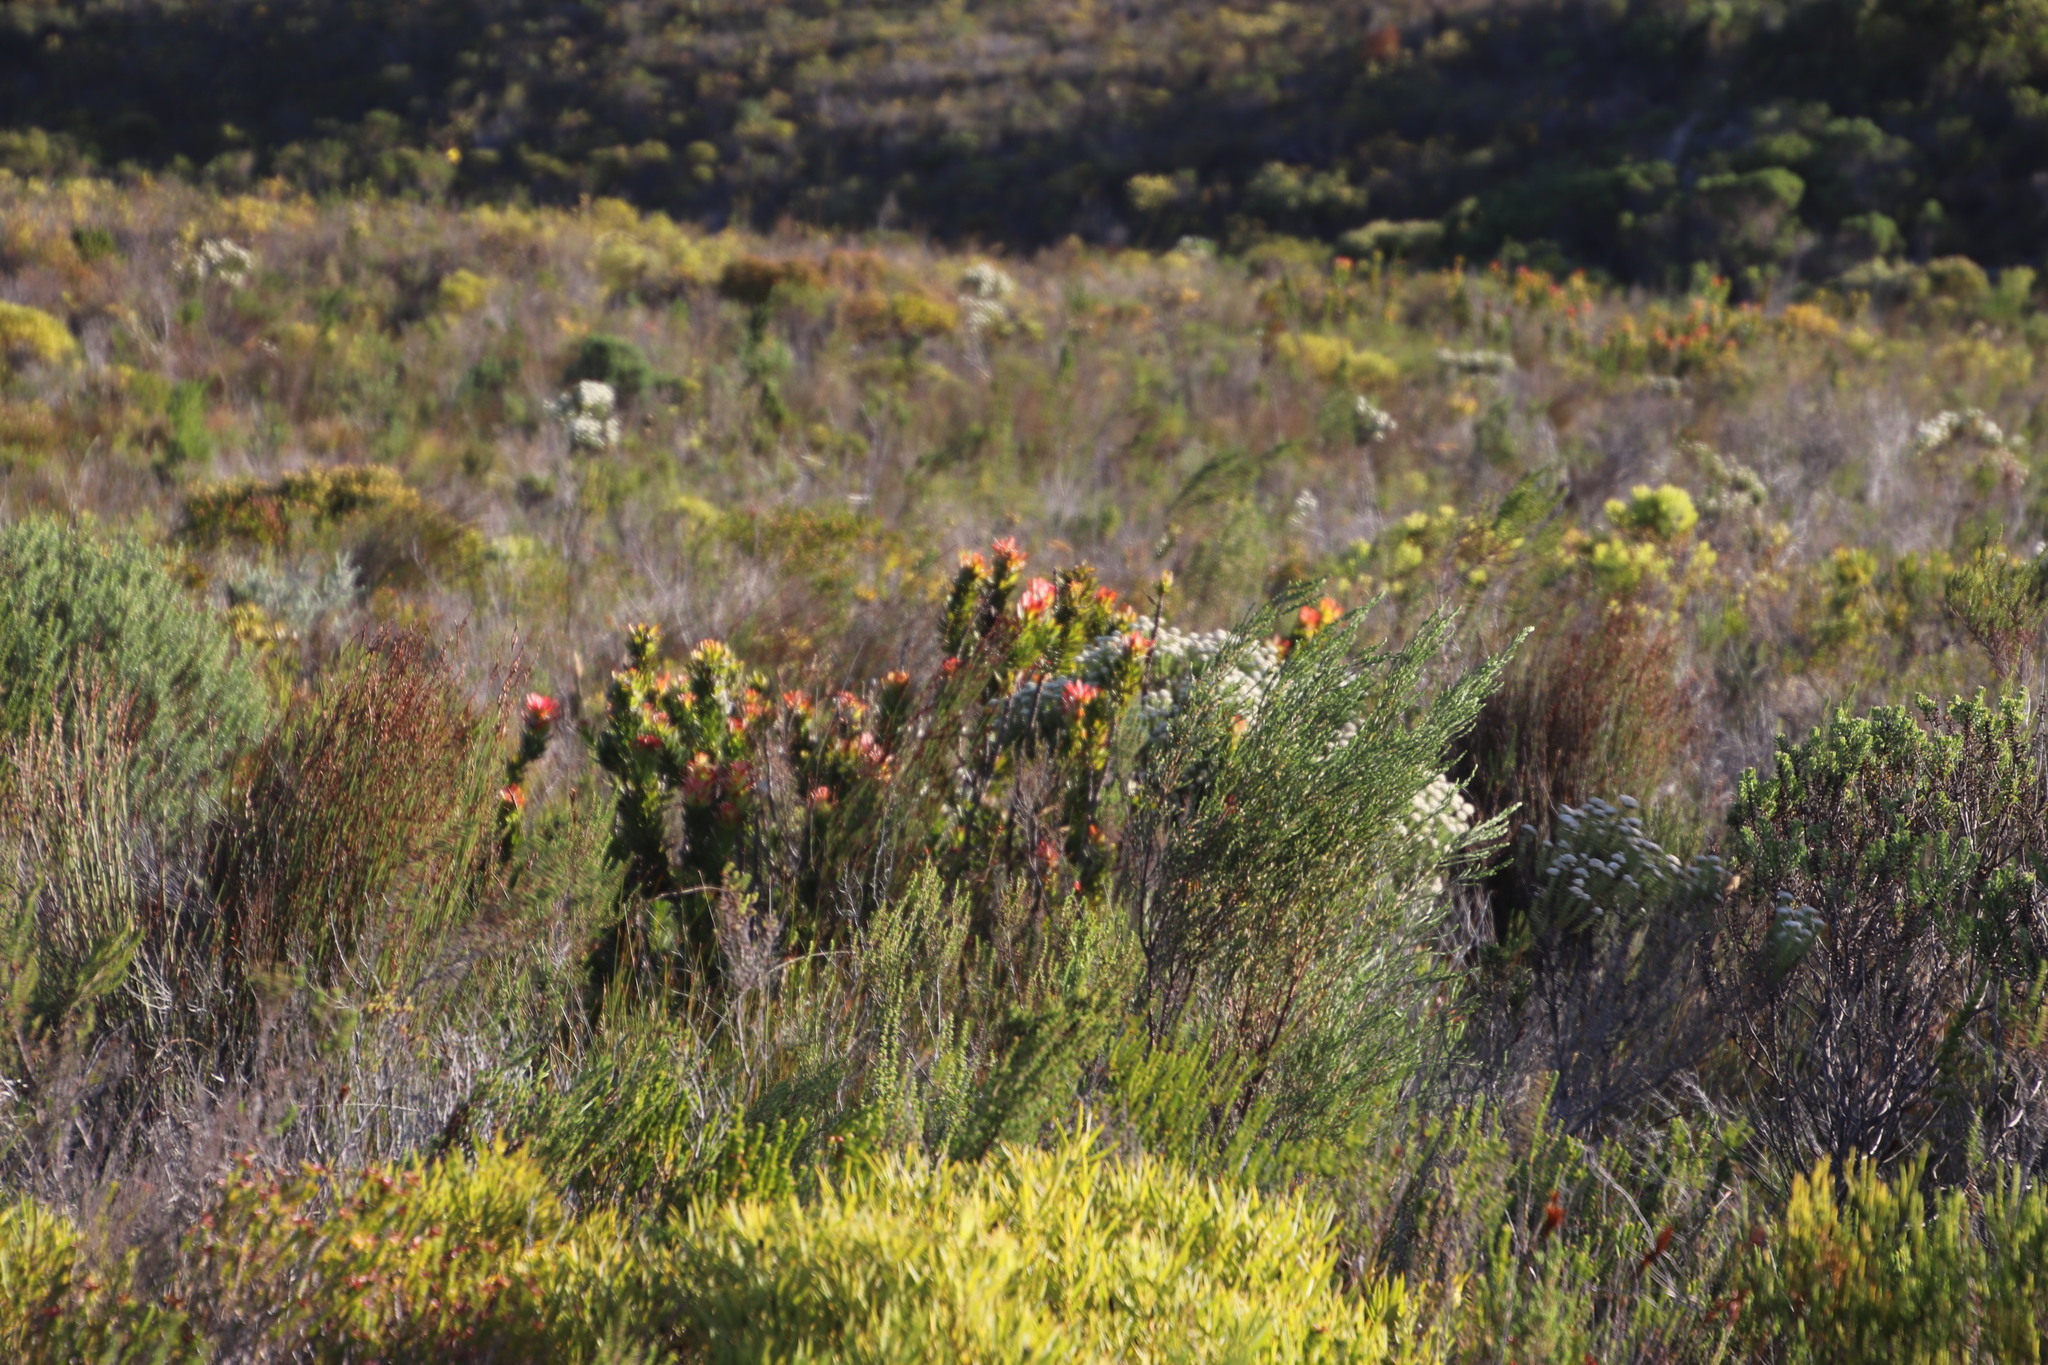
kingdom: Plantae
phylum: Tracheophyta
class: Magnoliopsida
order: Proteales
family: Proteaceae
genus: Mimetes
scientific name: Mimetes cucullatus
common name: Common pagoda
